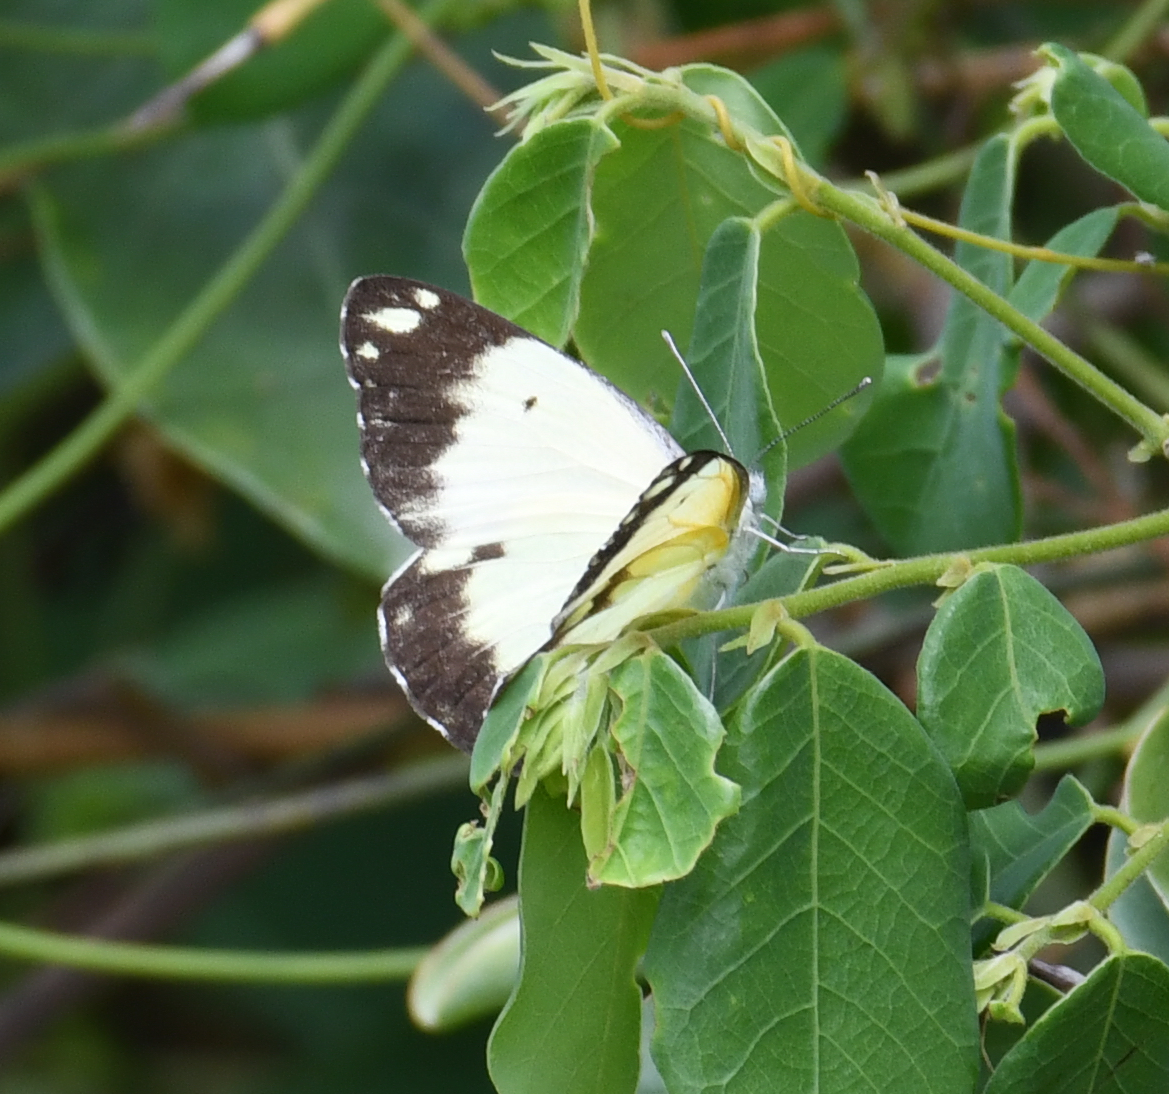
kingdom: Animalia
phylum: Arthropoda
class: Insecta
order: Lepidoptera
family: Pieridae
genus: Belenois
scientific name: Belenois creona
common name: African caper white
